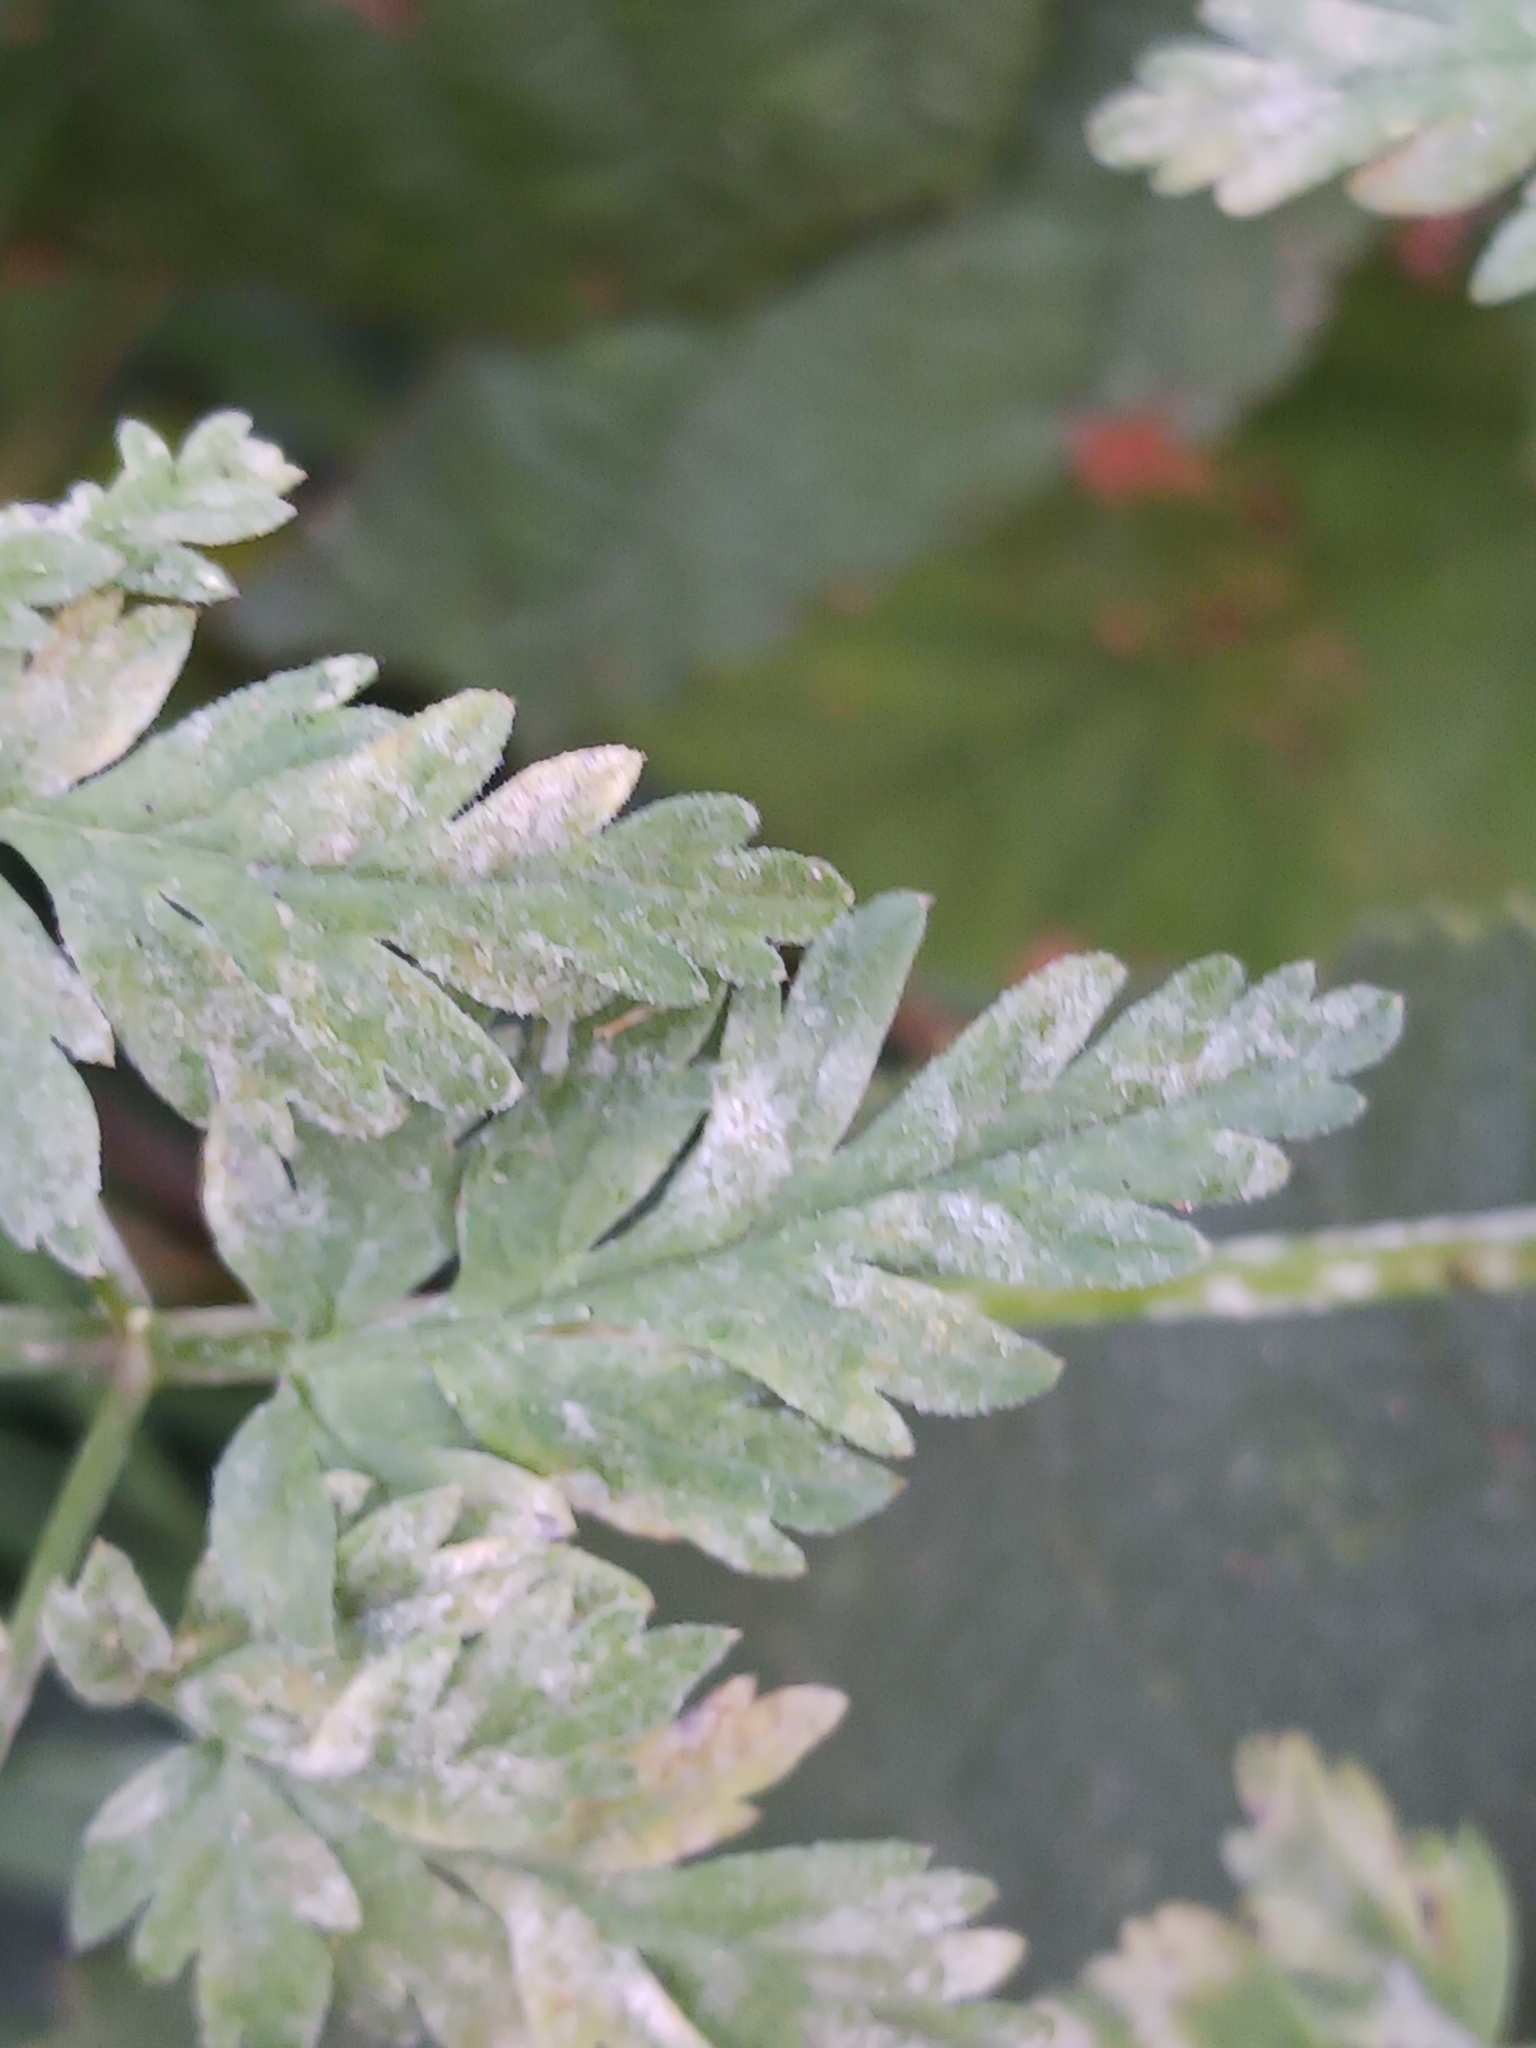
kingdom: Fungi
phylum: Ascomycota
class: Leotiomycetes
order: Helotiales
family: Erysiphaceae
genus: Erysiphe
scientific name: Erysiphe heraclei
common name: Umbellifer mildew
